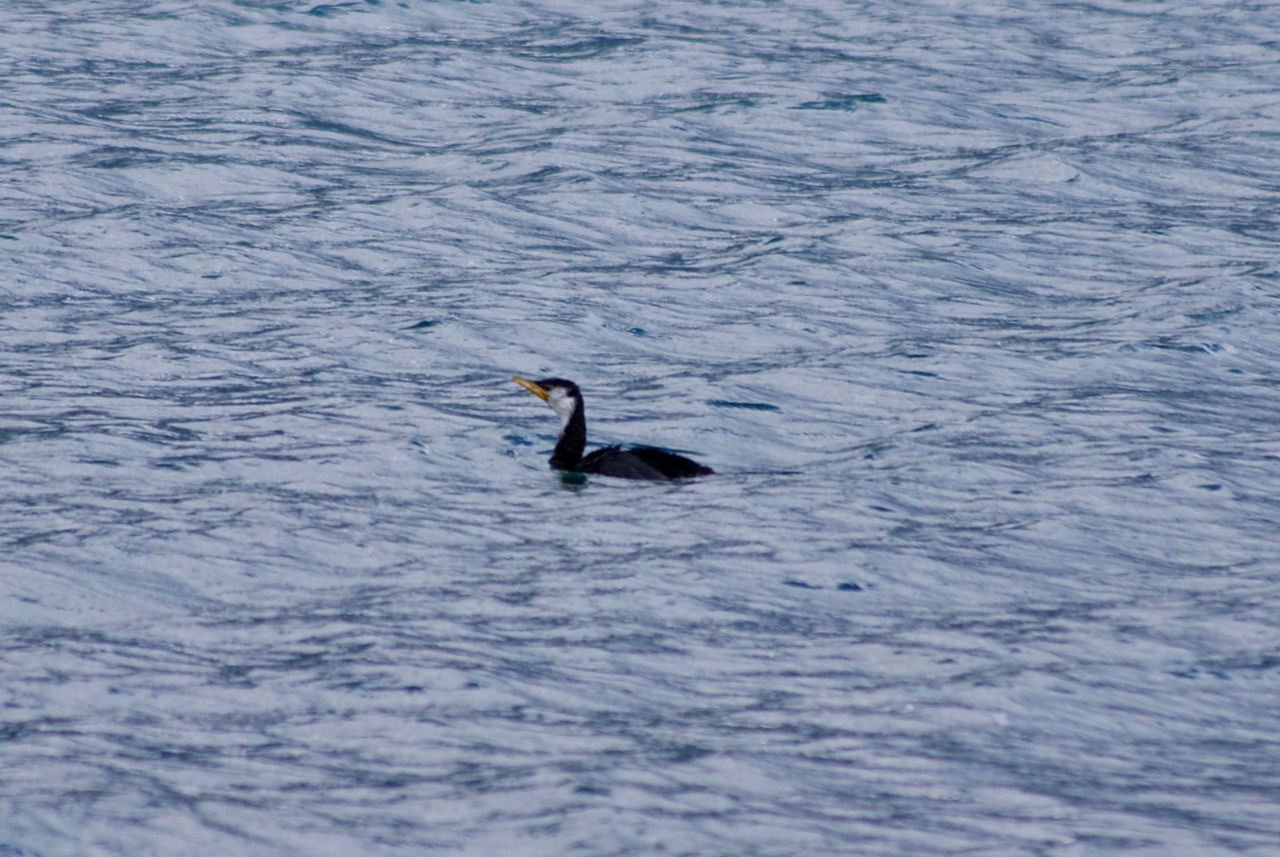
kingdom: Animalia
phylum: Chordata
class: Aves
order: Suliformes
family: Phalacrocoracidae
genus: Microcarbo
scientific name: Microcarbo melanoleucos
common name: Little pied cormorant
